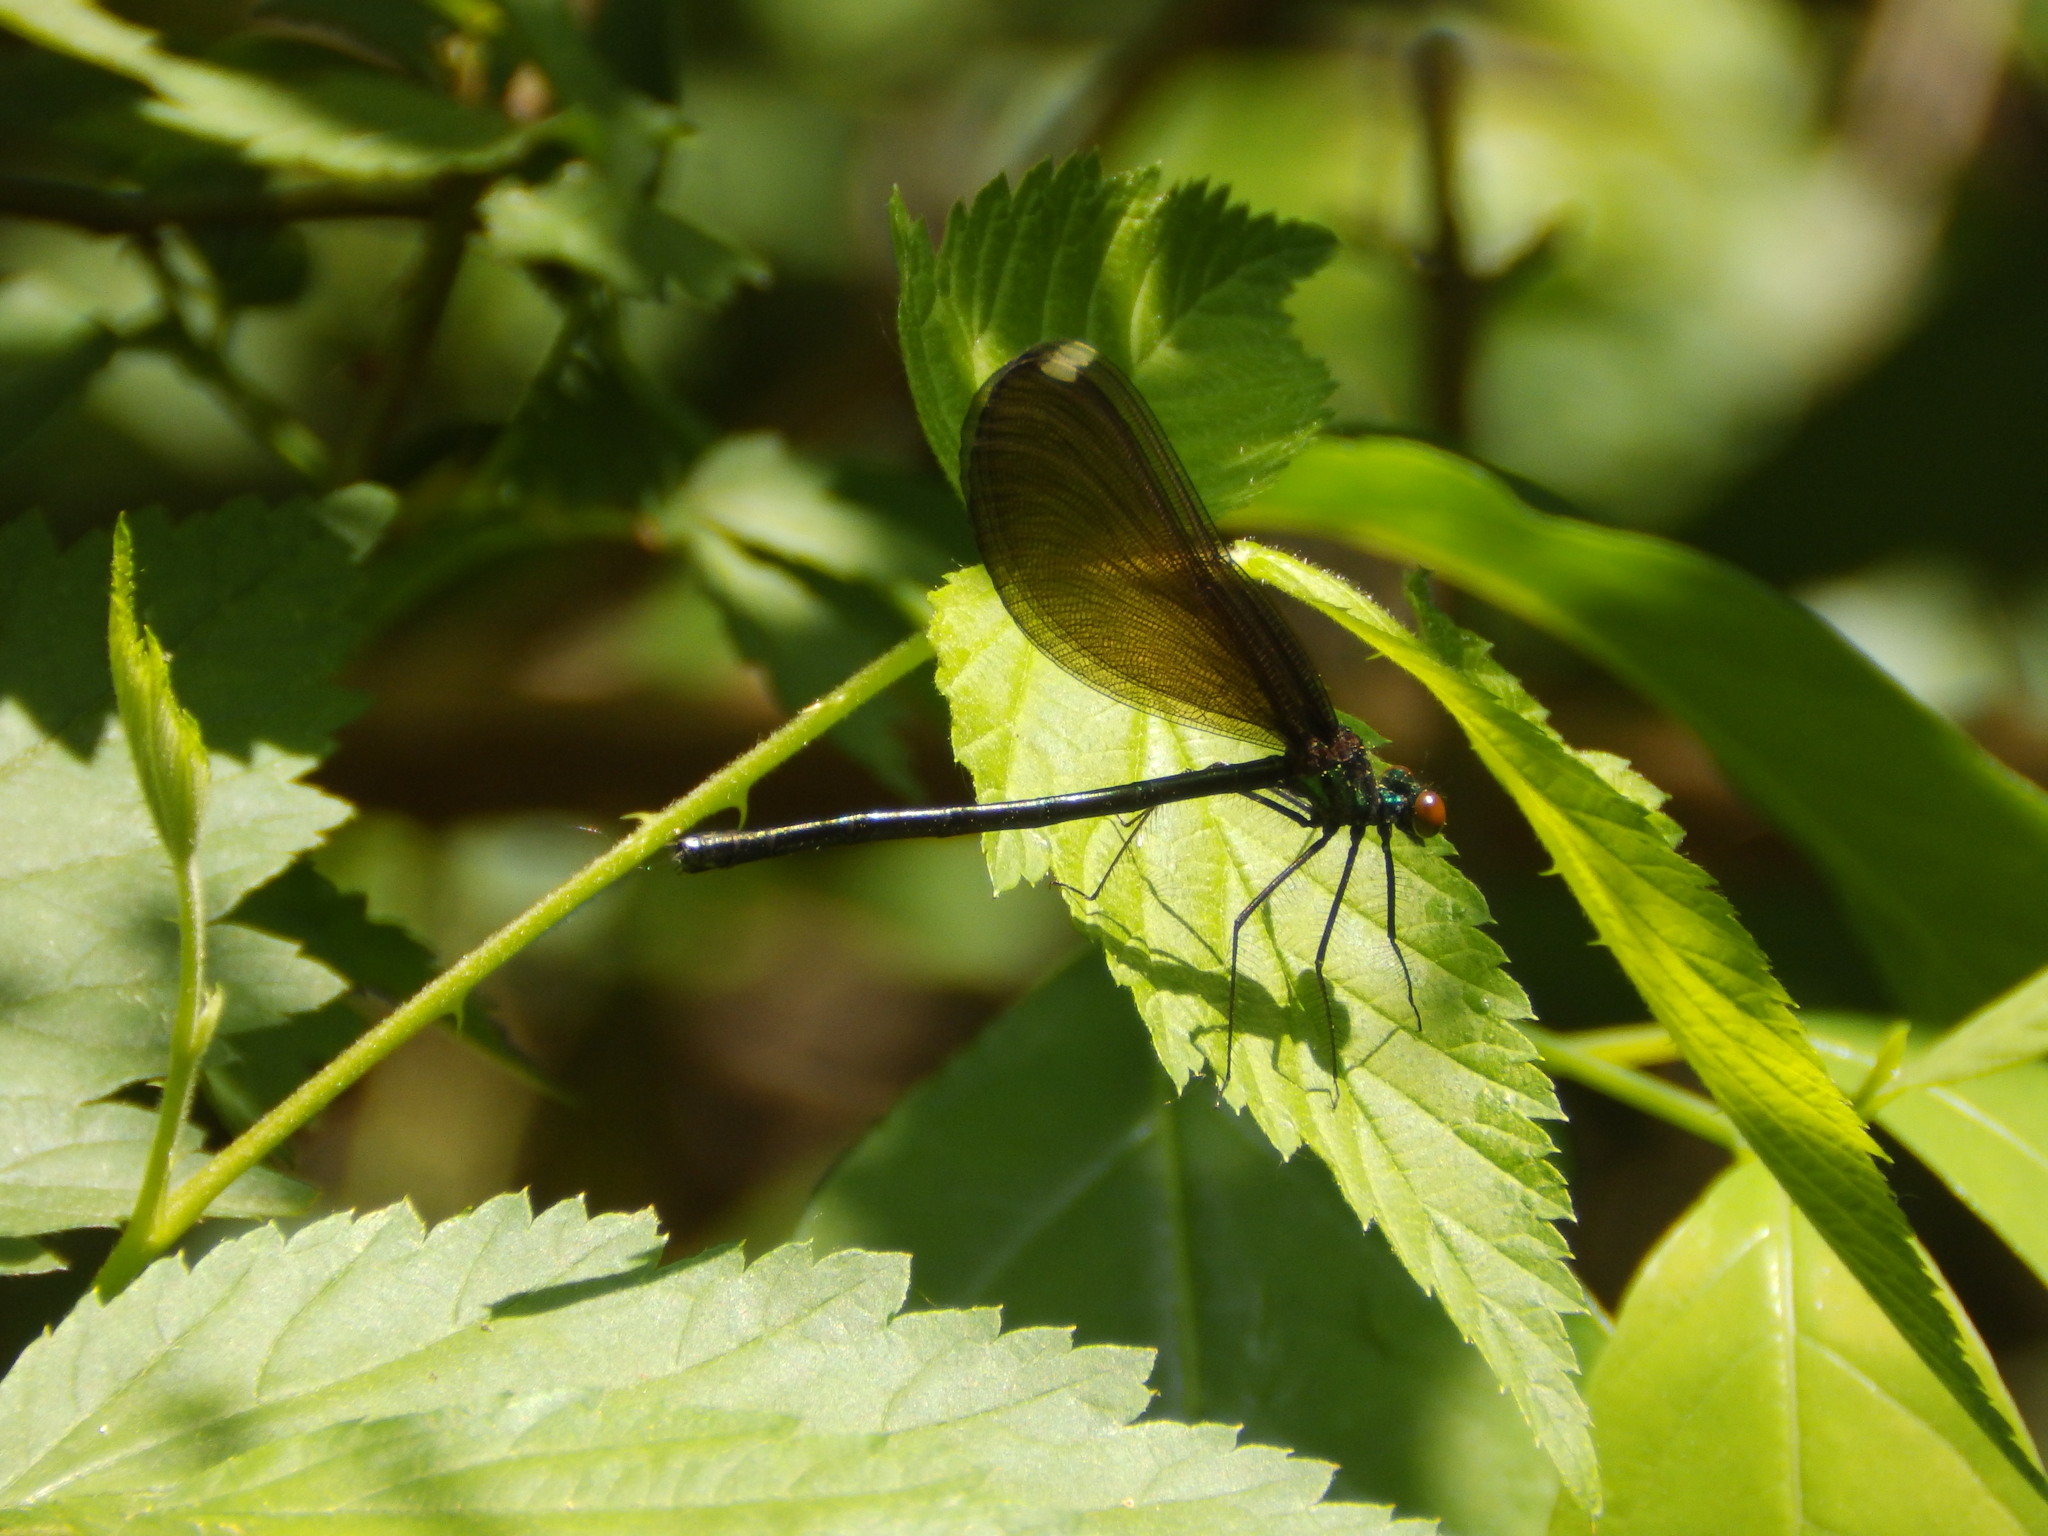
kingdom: Animalia
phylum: Arthropoda
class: Insecta
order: Odonata
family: Calopterygidae
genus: Calopteryx
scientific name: Calopteryx maculata
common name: Ebony jewelwing
